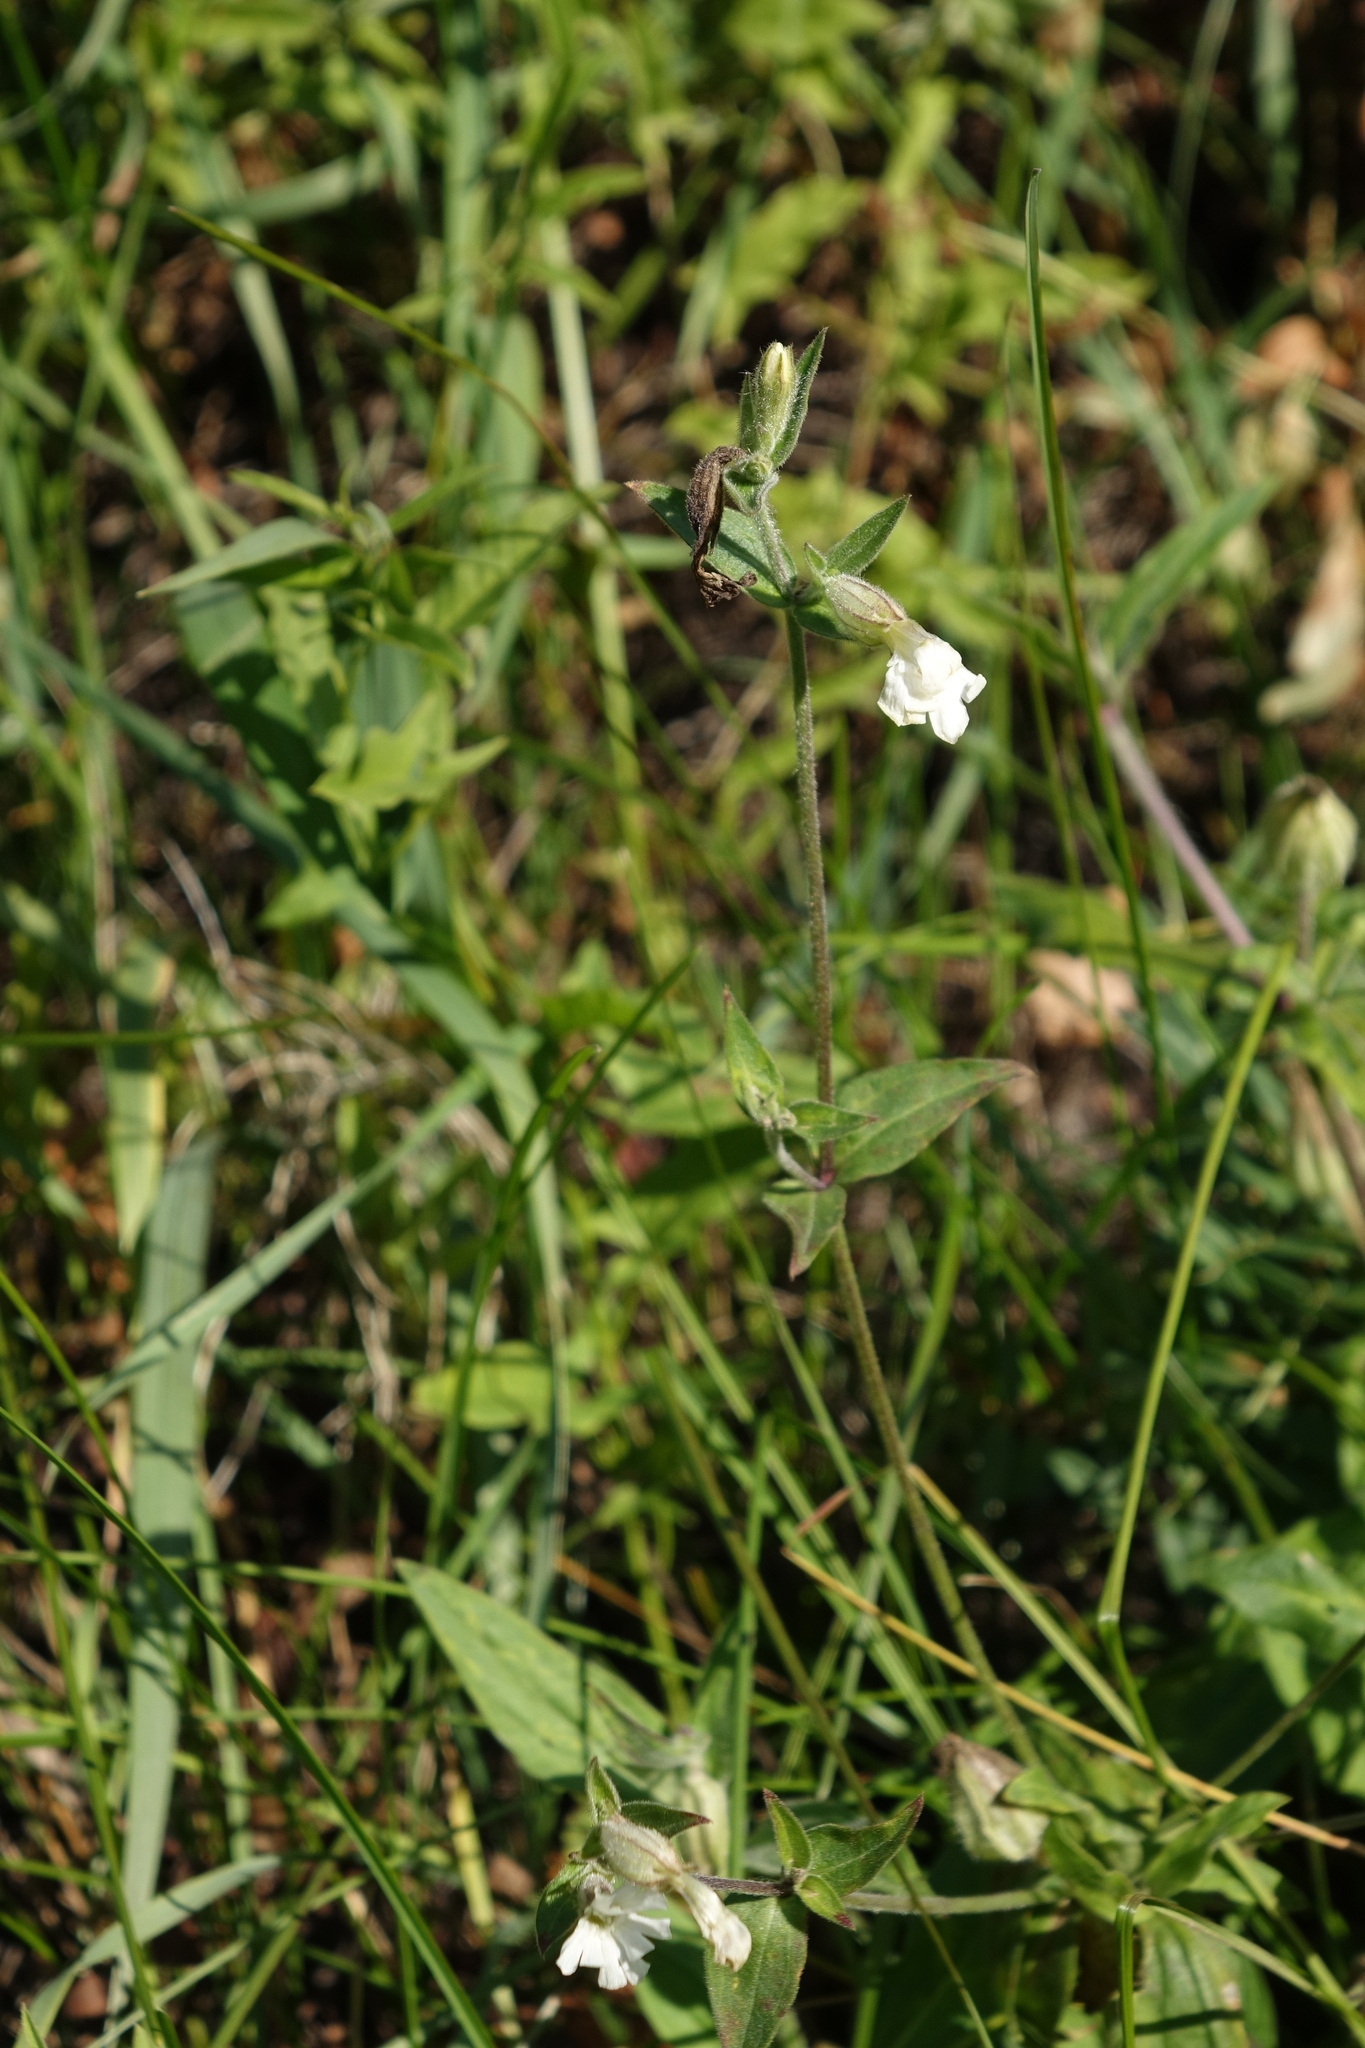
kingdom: Plantae
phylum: Tracheophyta
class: Magnoliopsida
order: Caryophyllales
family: Caryophyllaceae
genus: Silene
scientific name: Silene latifolia
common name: White campion
